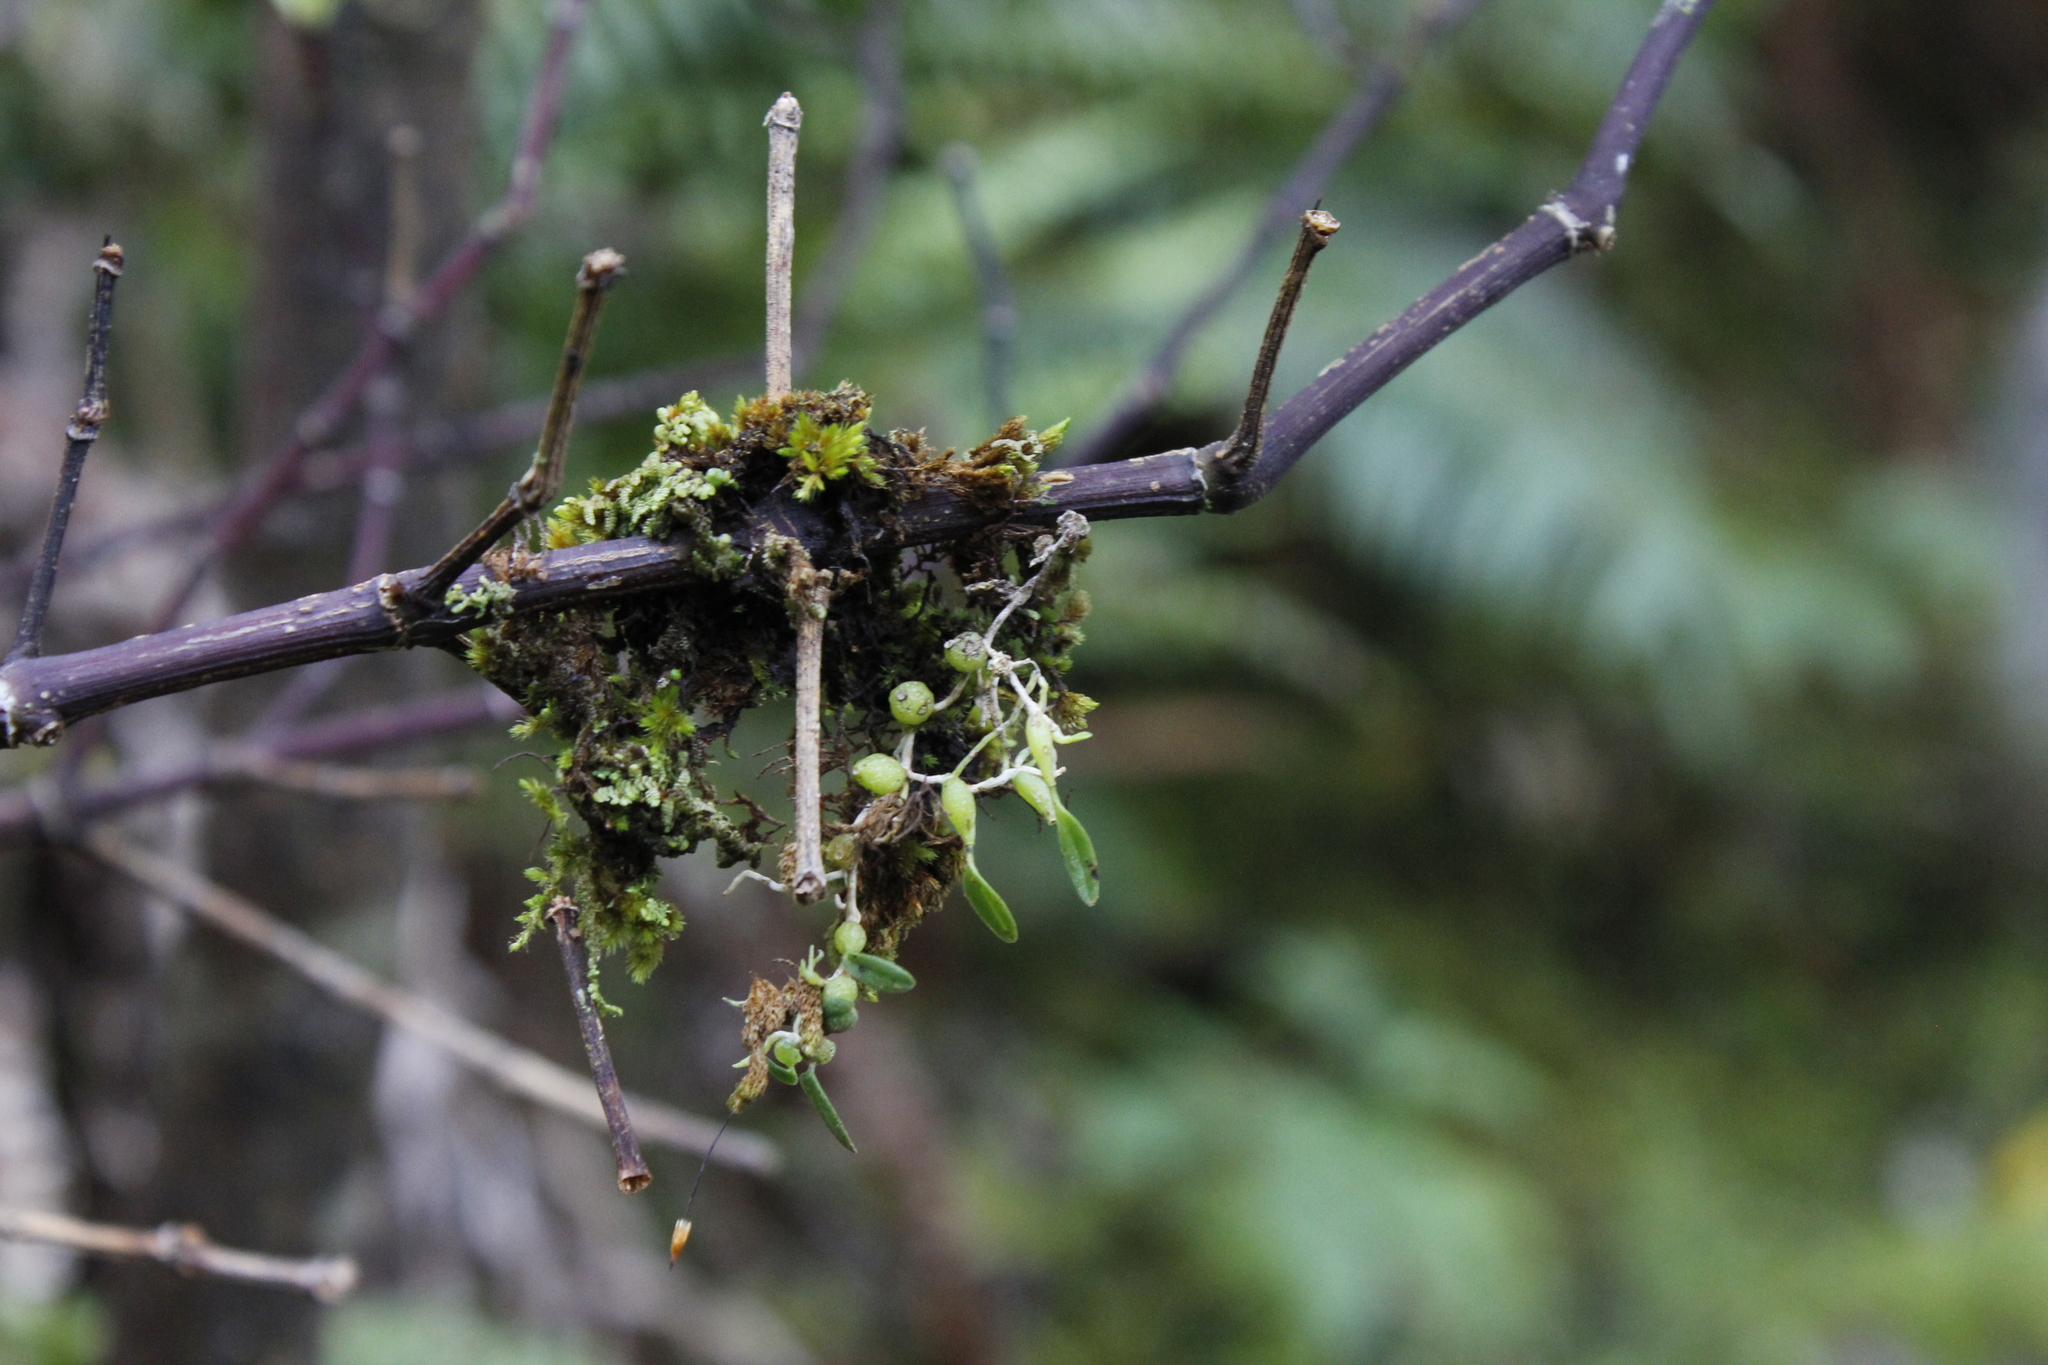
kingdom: Plantae
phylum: Tracheophyta
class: Liliopsida
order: Asparagales
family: Orchidaceae
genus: Bulbophyllum
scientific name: Bulbophyllum pygmaeum
